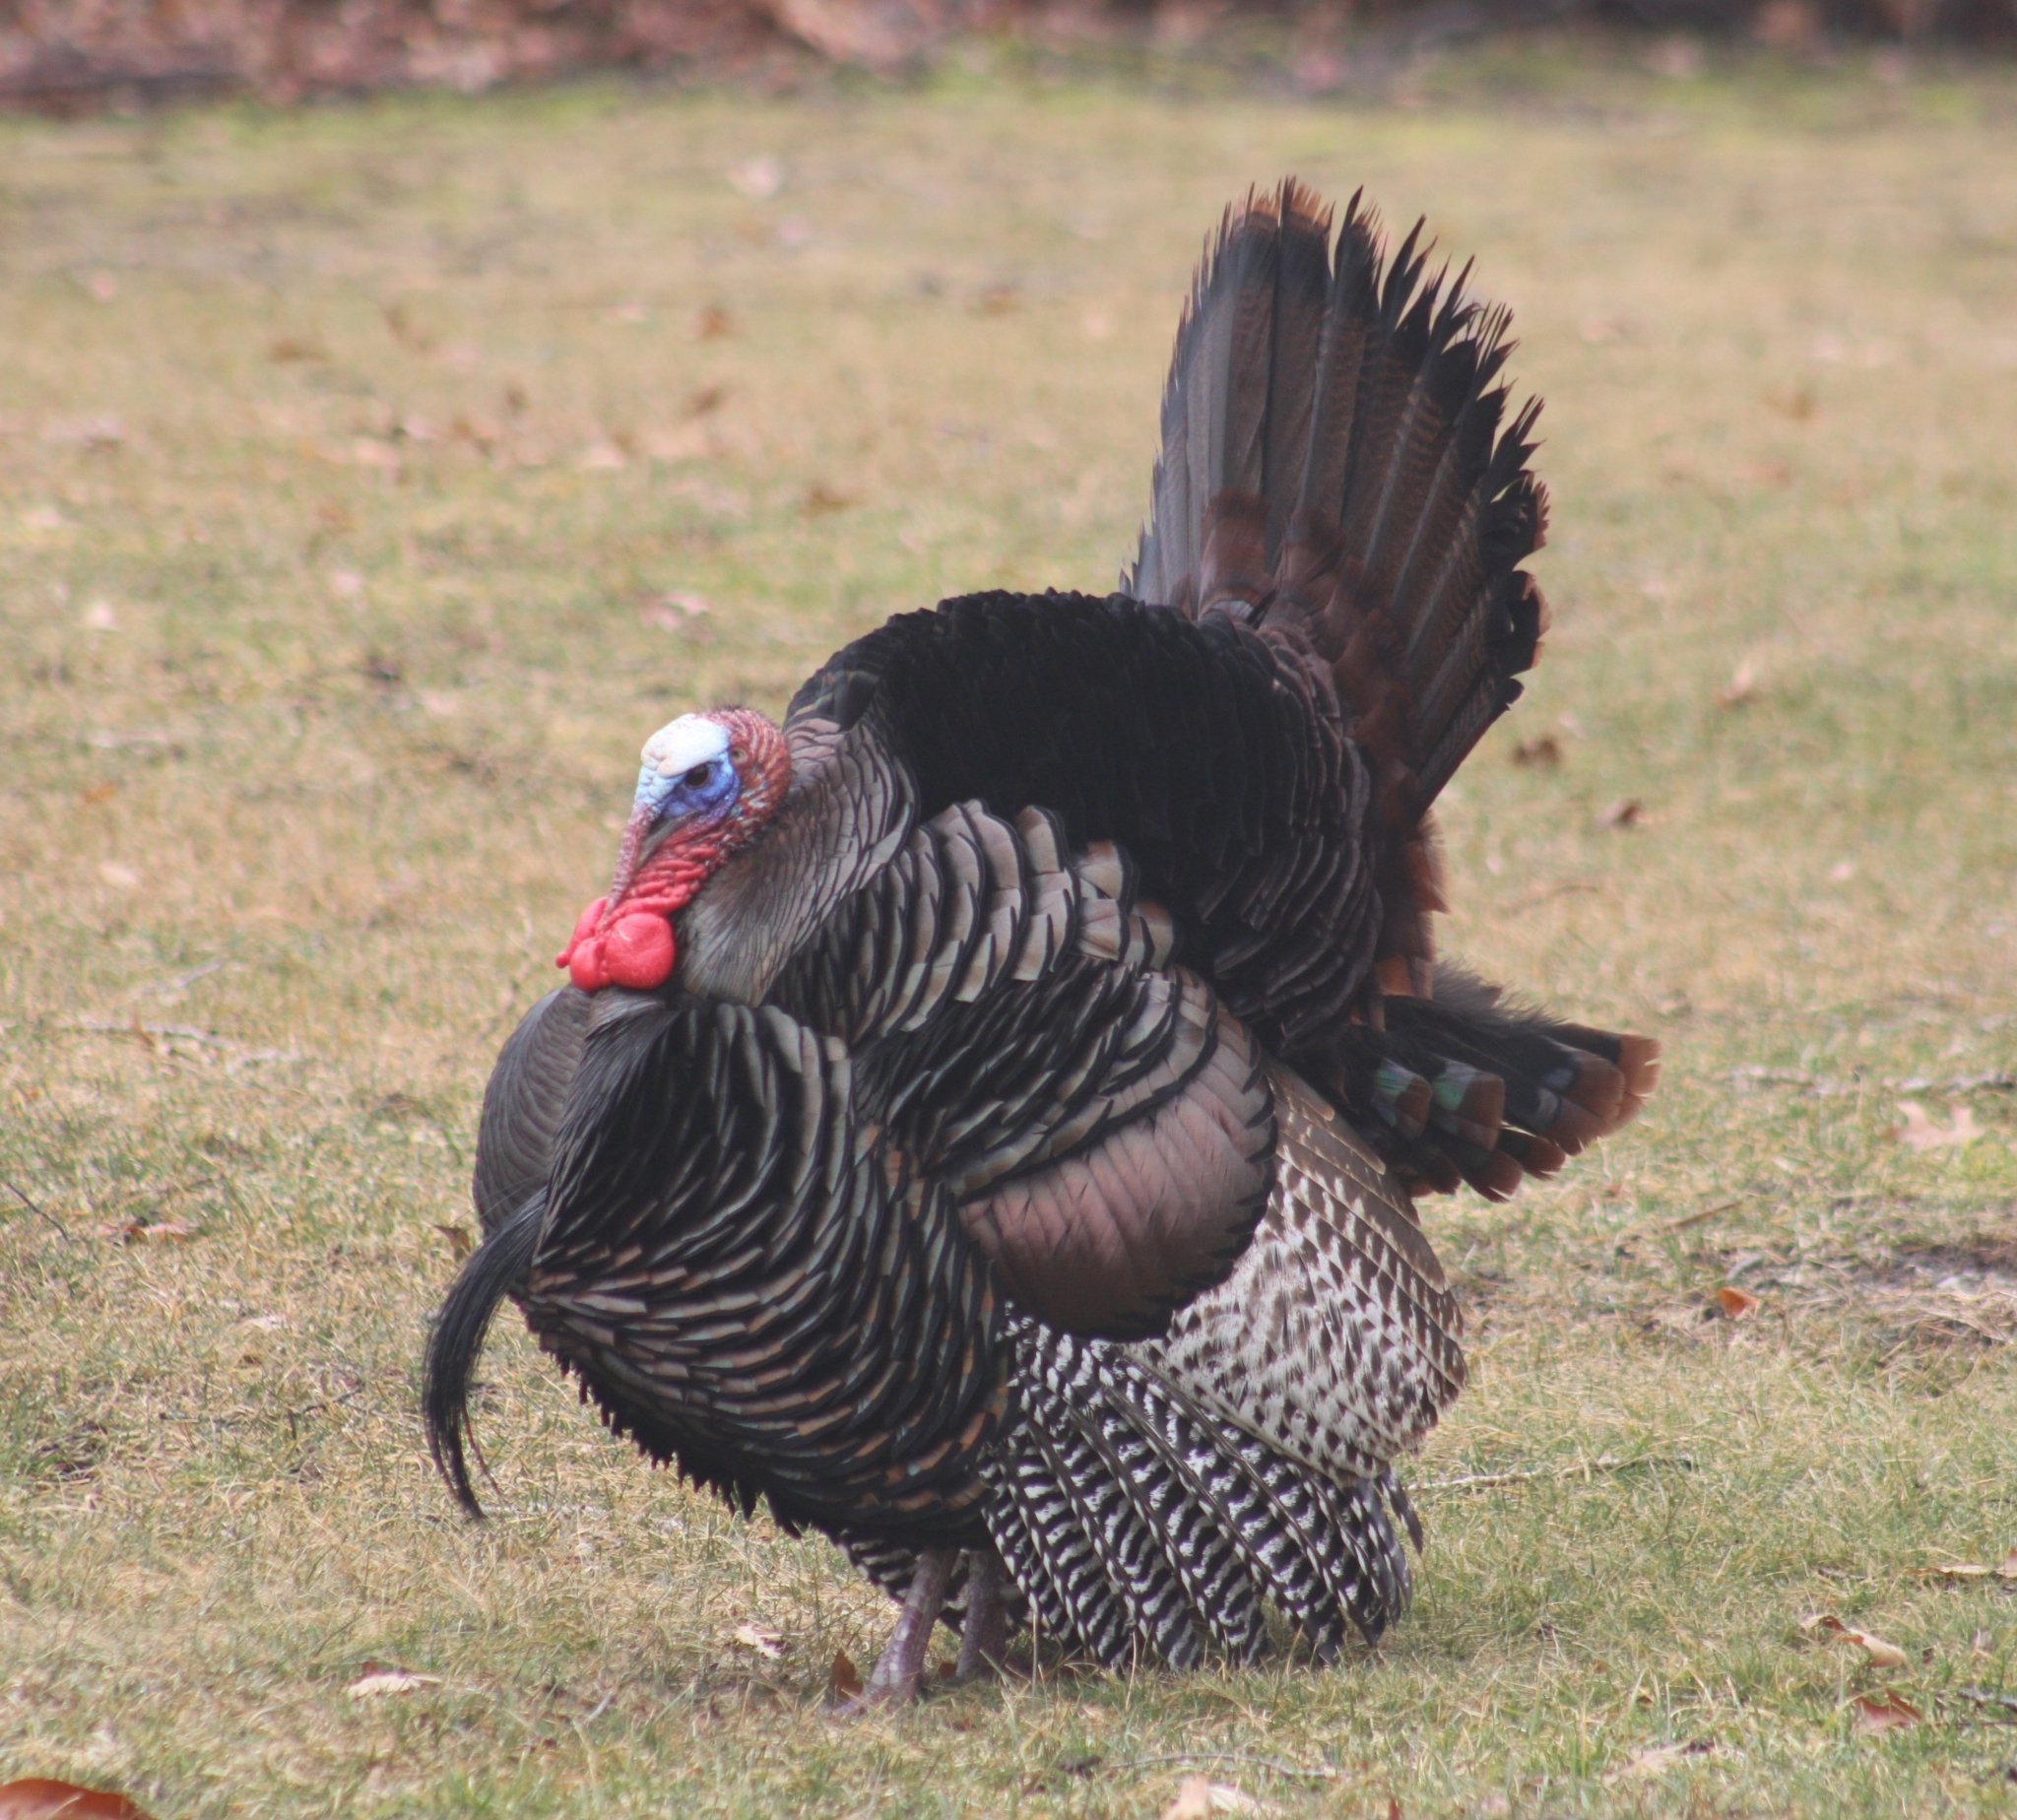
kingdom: Animalia
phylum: Chordata
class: Aves
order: Galliformes
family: Phasianidae
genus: Meleagris
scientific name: Meleagris gallopavo
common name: Wild turkey
